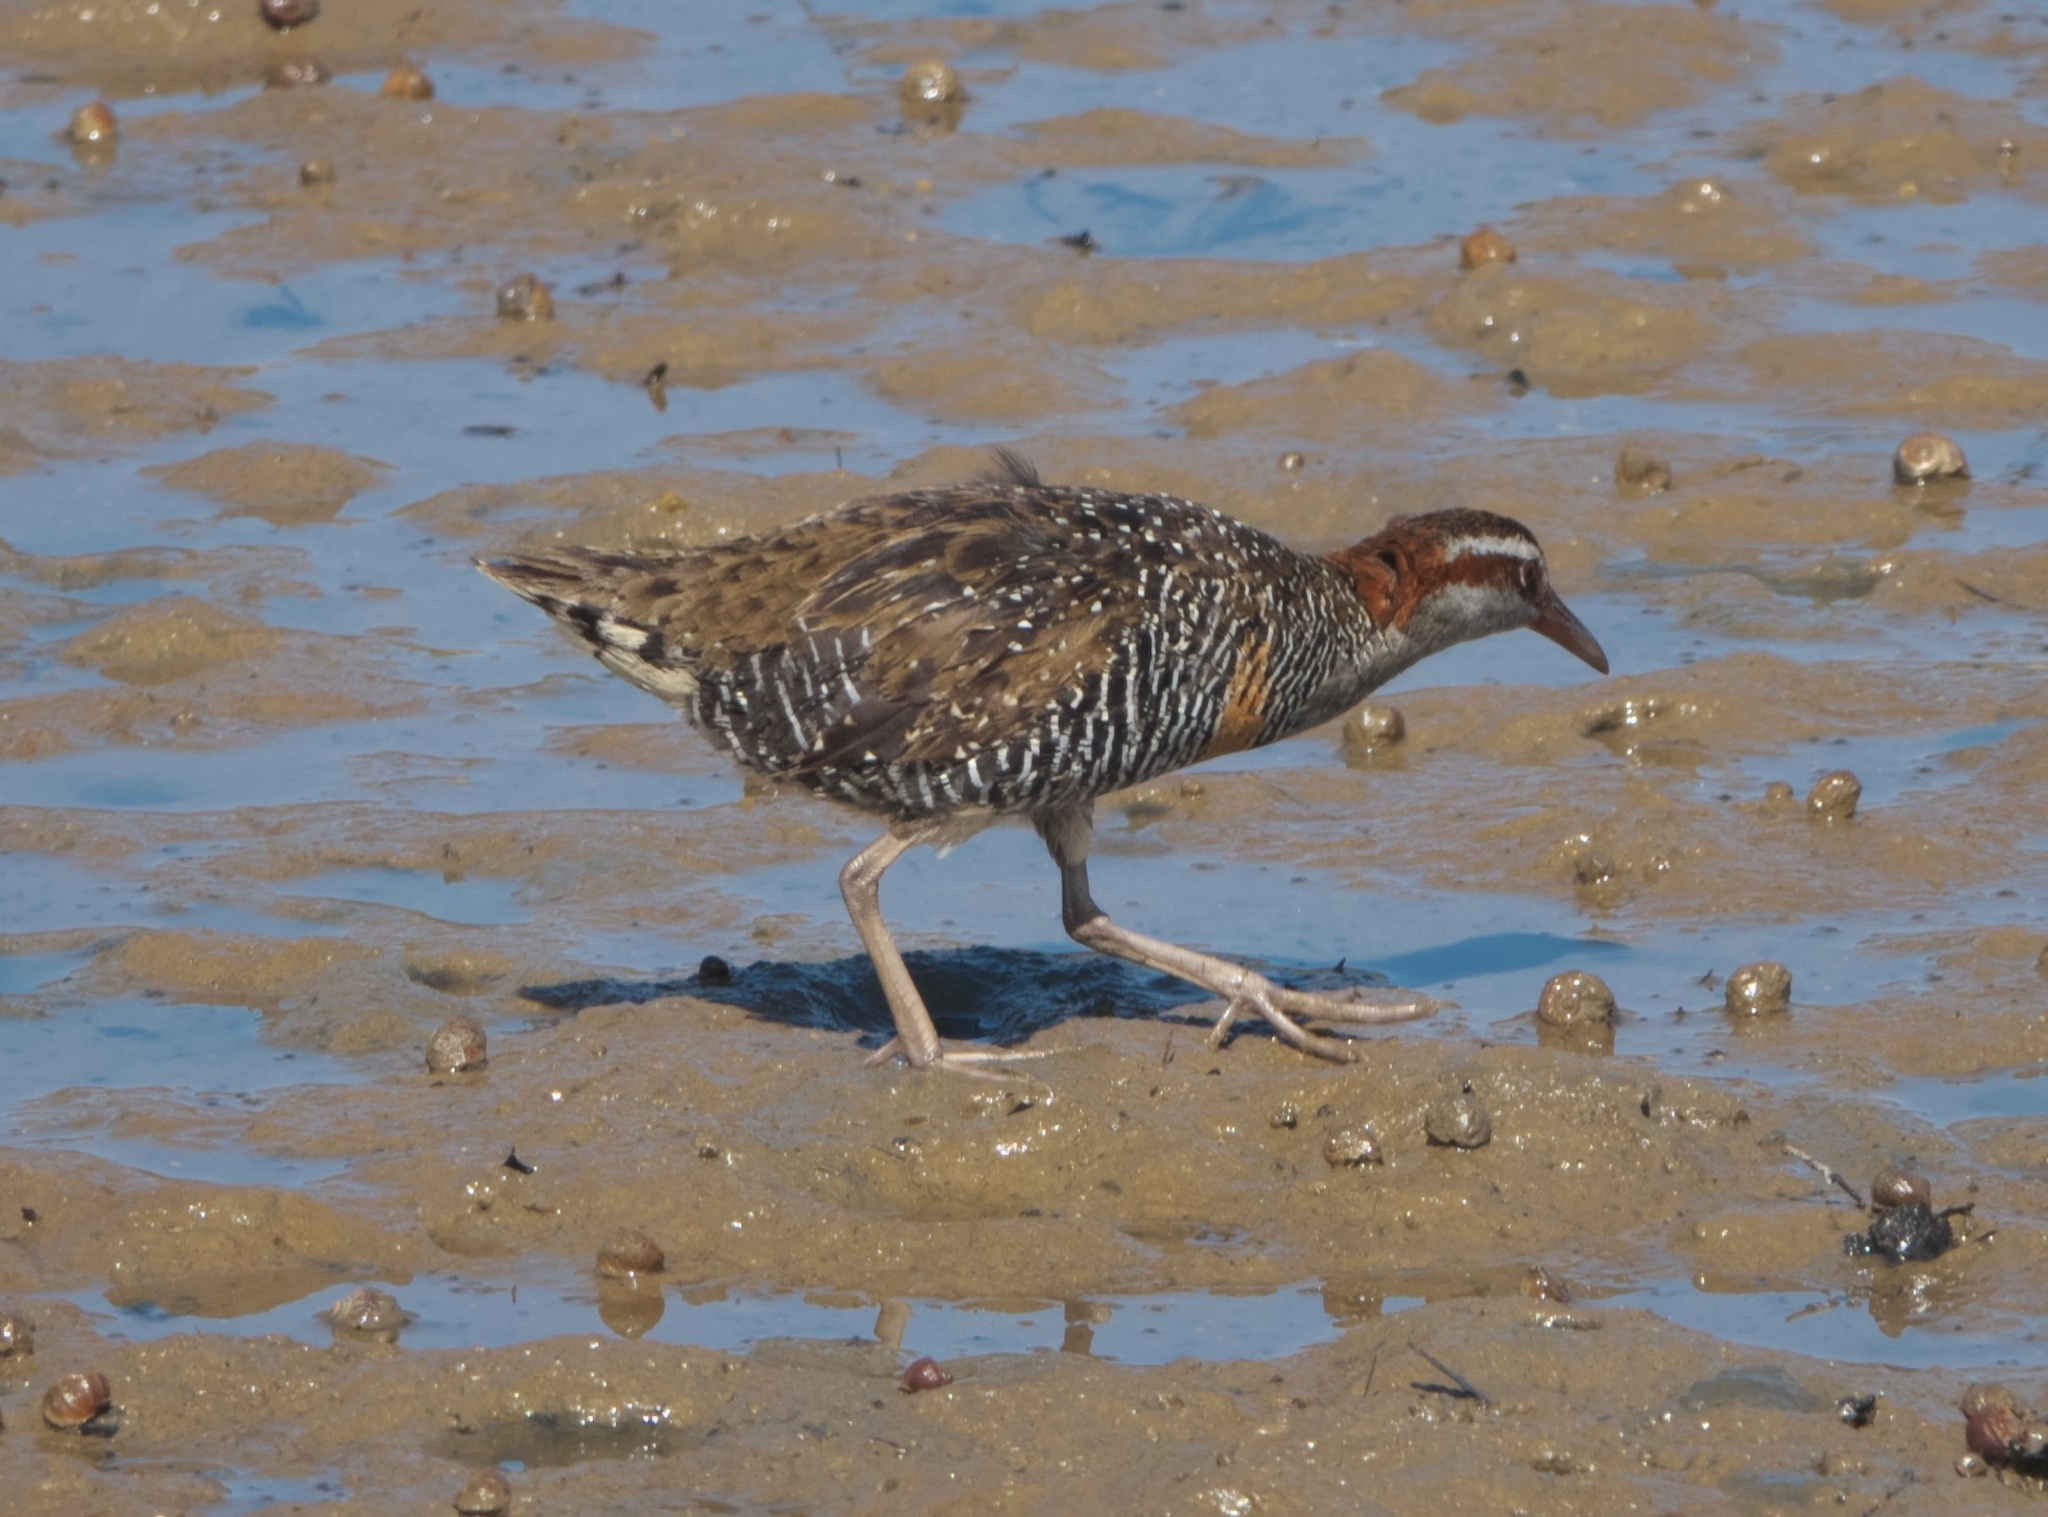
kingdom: Animalia
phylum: Chordata
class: Aves
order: Gruiformes
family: Rallidae
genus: Gallirallus
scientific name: Gallirallus philippensis
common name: Buff-banded rail
